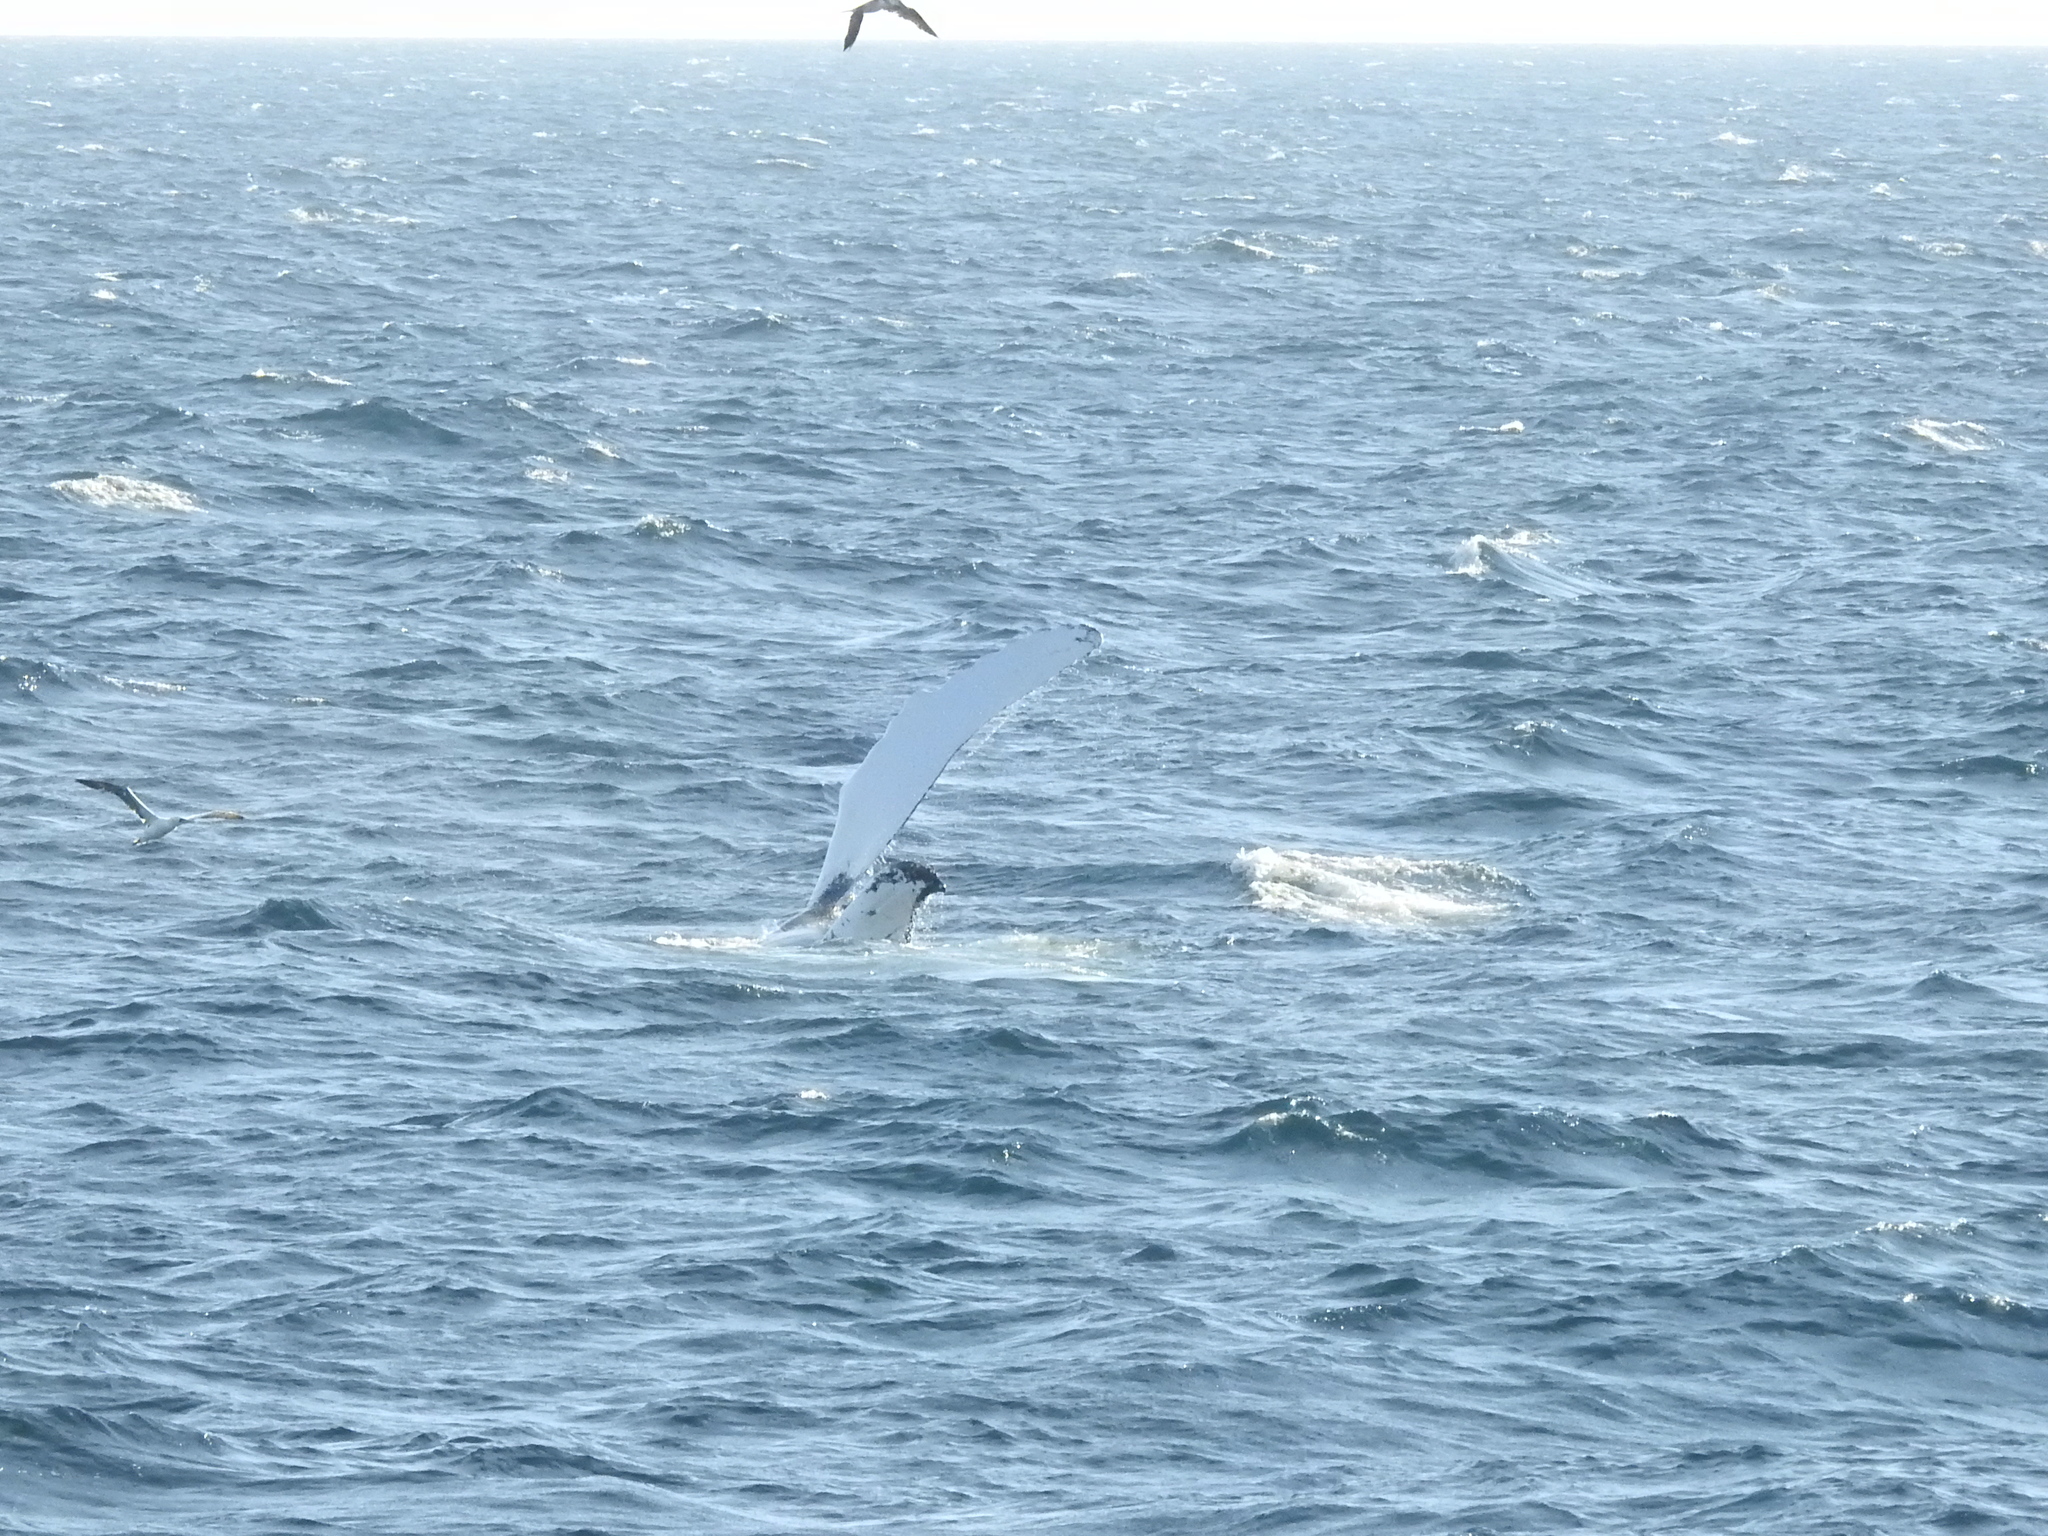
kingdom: Animalia
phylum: Chordata
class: Mammalia
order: Cetacea
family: Balaenopteridae
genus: Megaptera
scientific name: Megaptera novaeangliae
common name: Humpback whale
